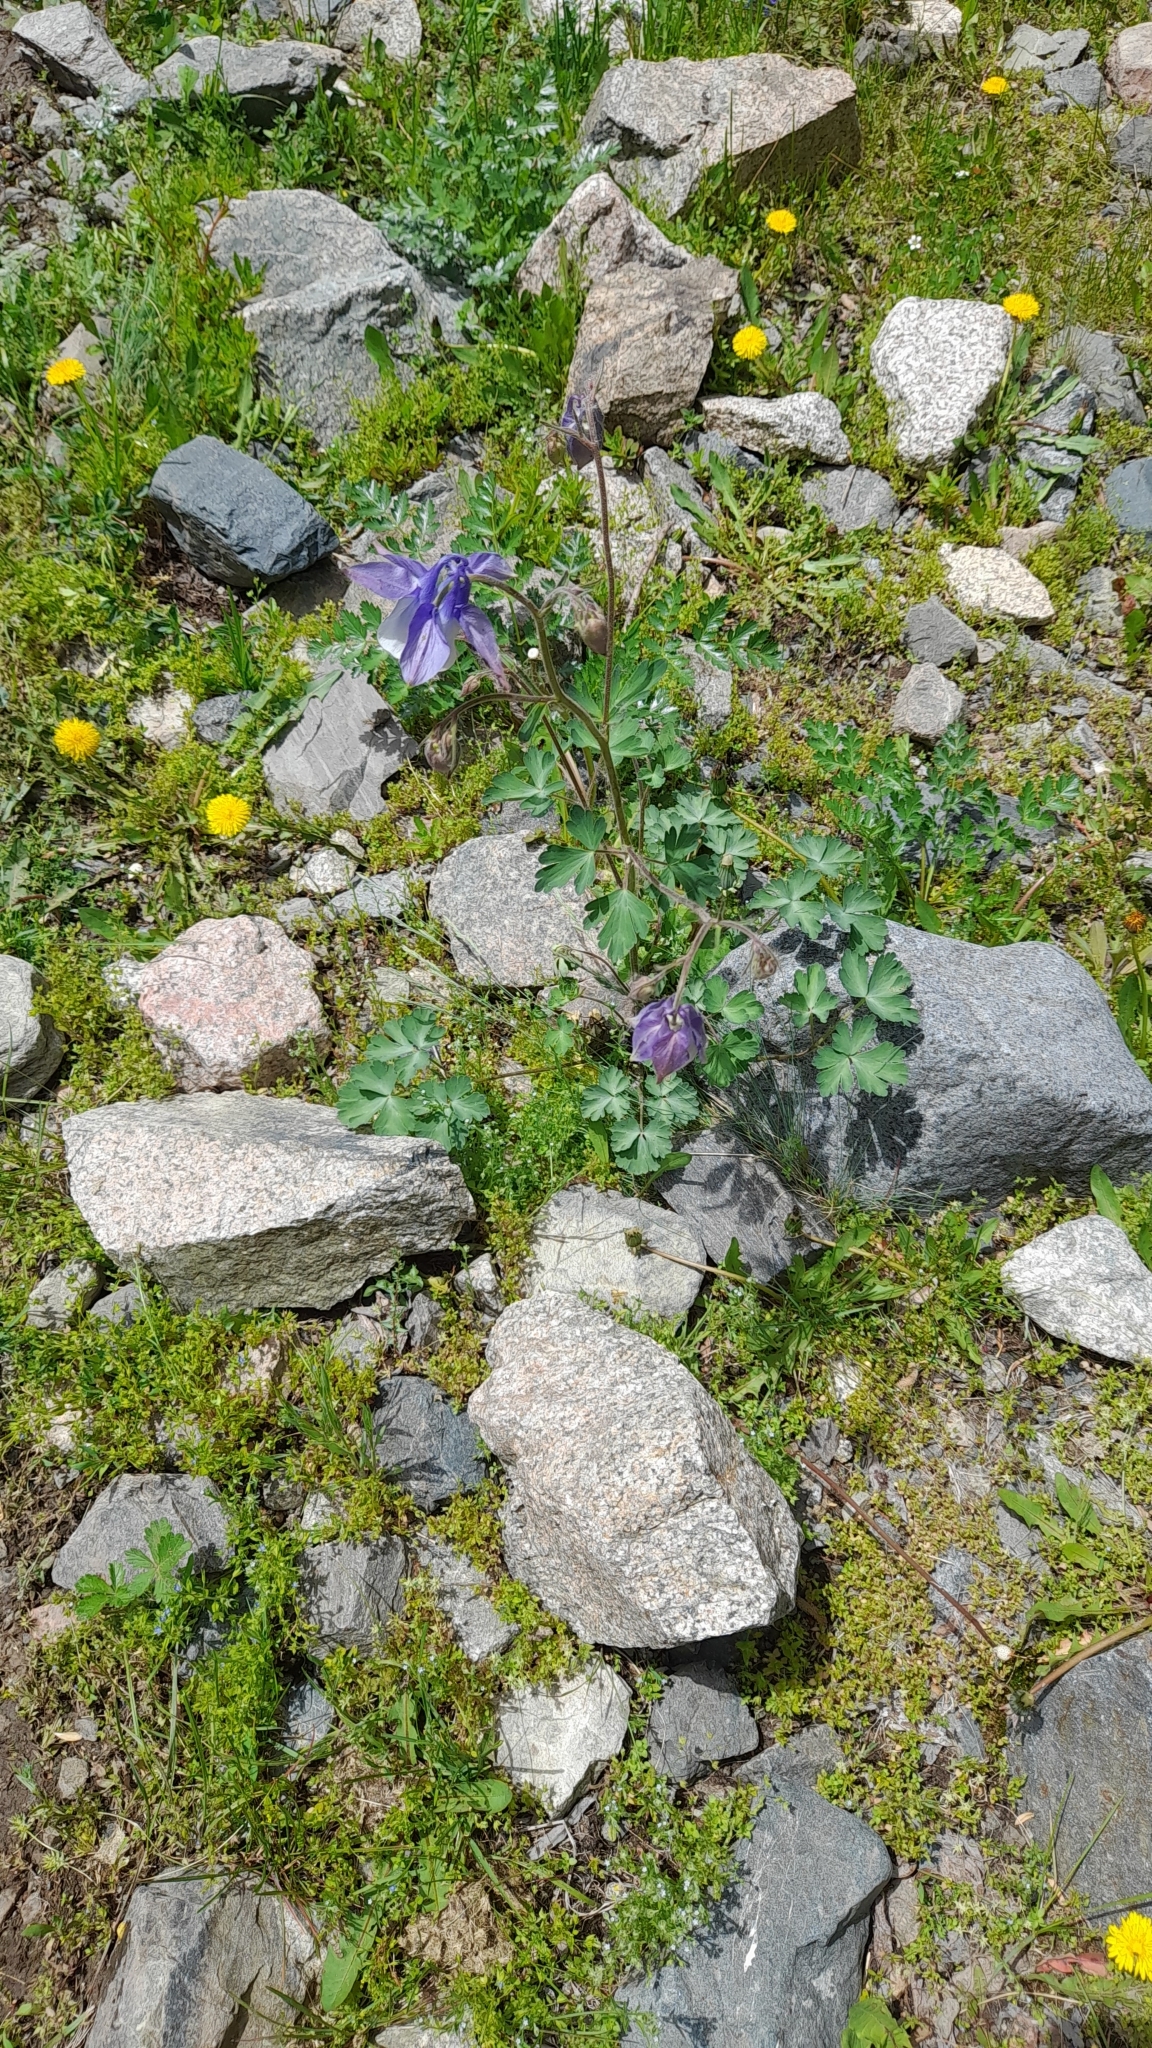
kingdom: Plantae
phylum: Tracheophyta
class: Magnoliopsida
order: Ranunculales
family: Ranunculaceae
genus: Aquilegia
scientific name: Aquilegia vitalii
